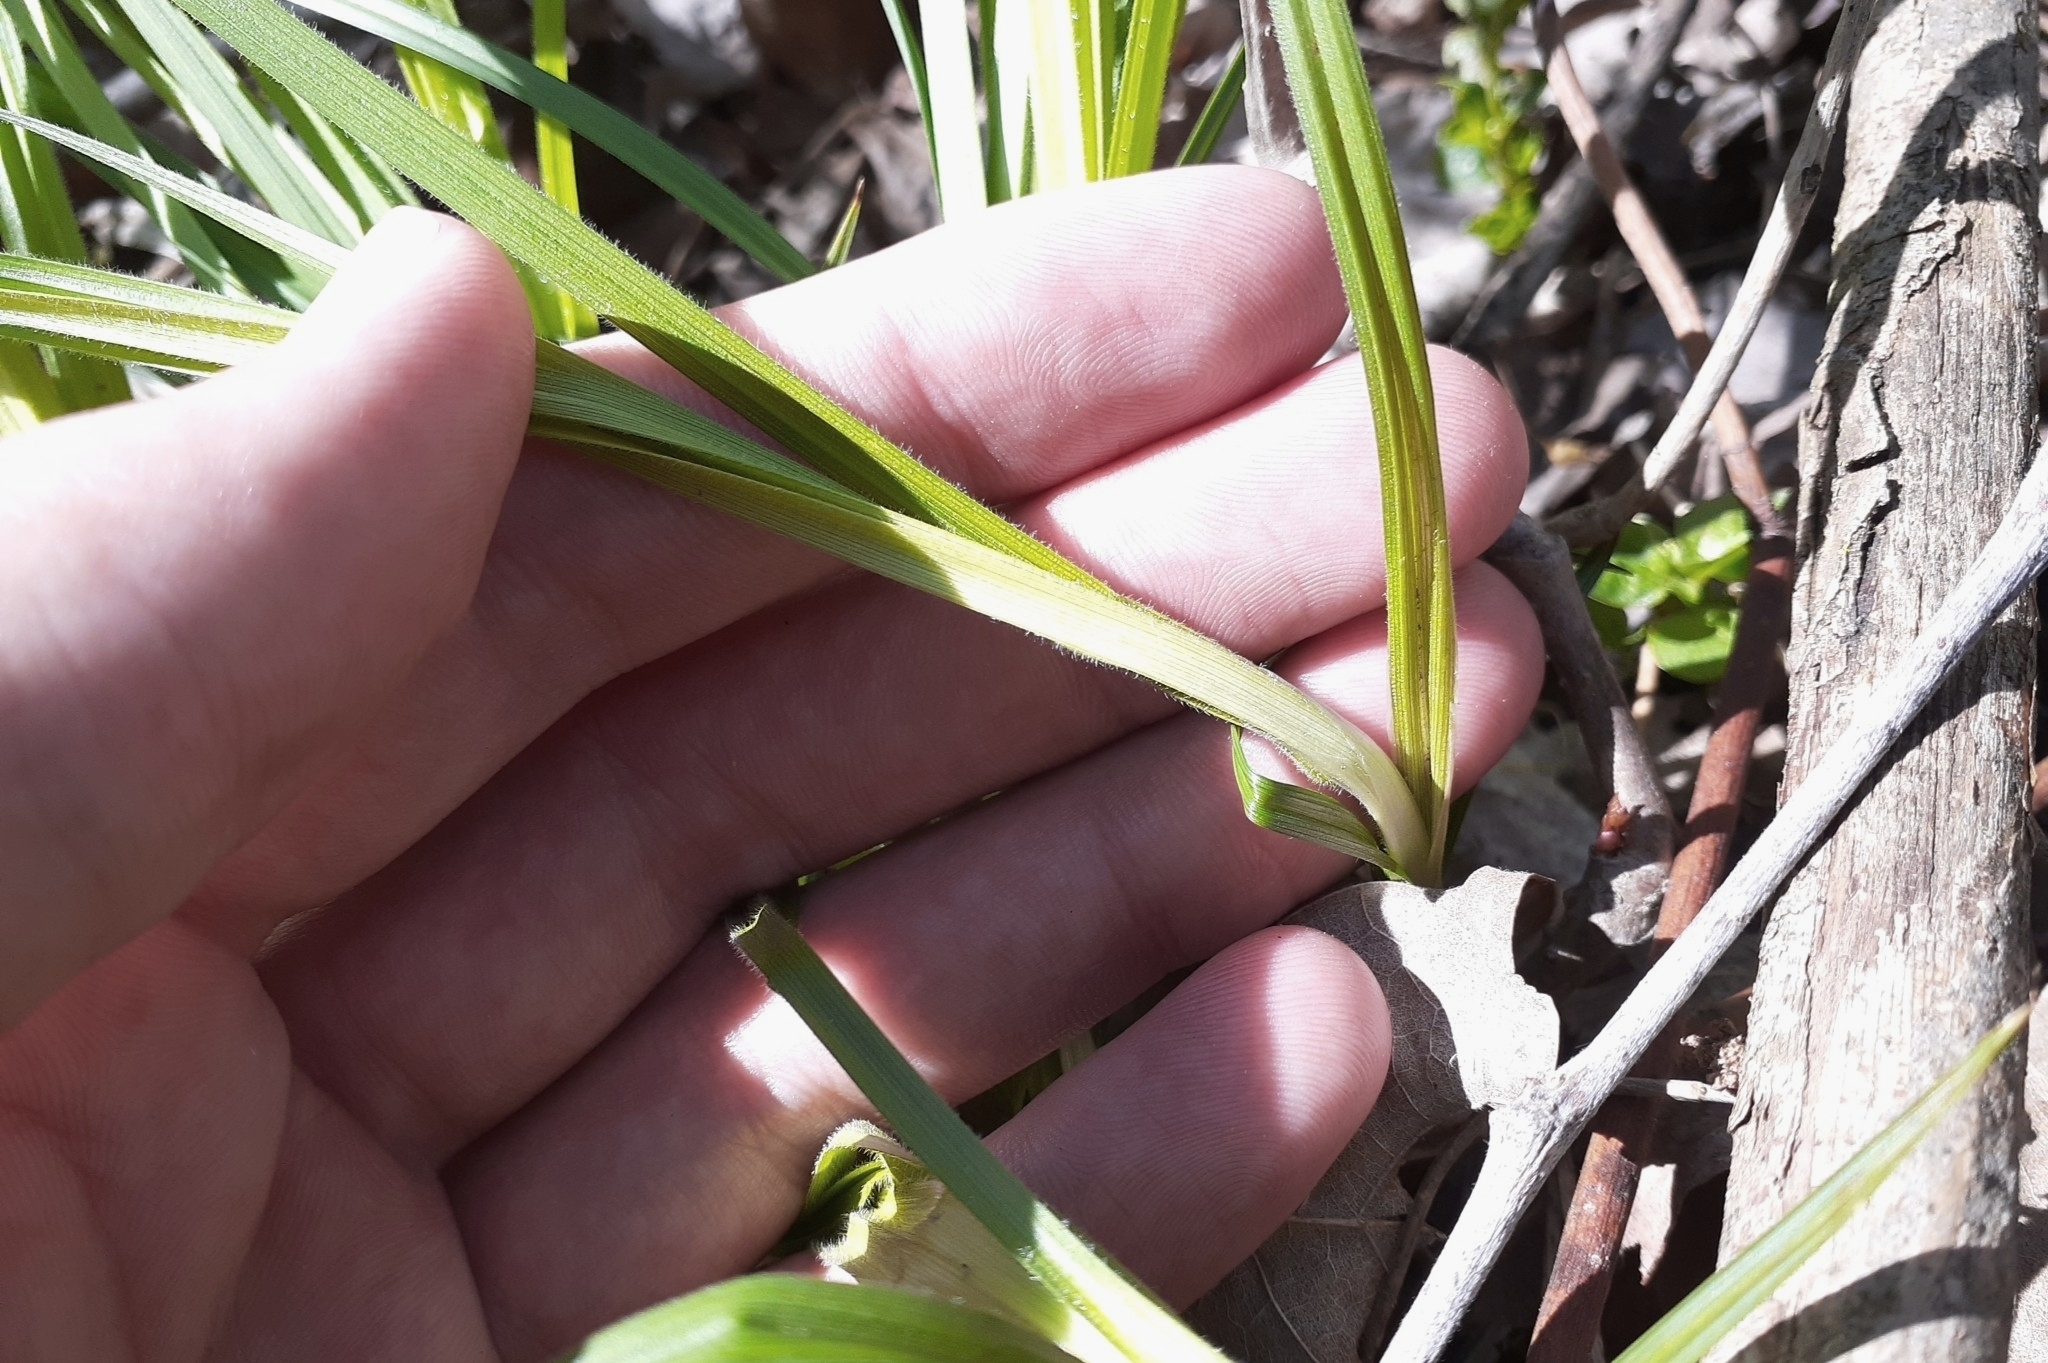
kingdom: Plantae
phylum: Tracheophyta
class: Liliopsida
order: Poales
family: Cyperaceae
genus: Carex
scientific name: Carex formosa
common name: Awnless graceful sedge
